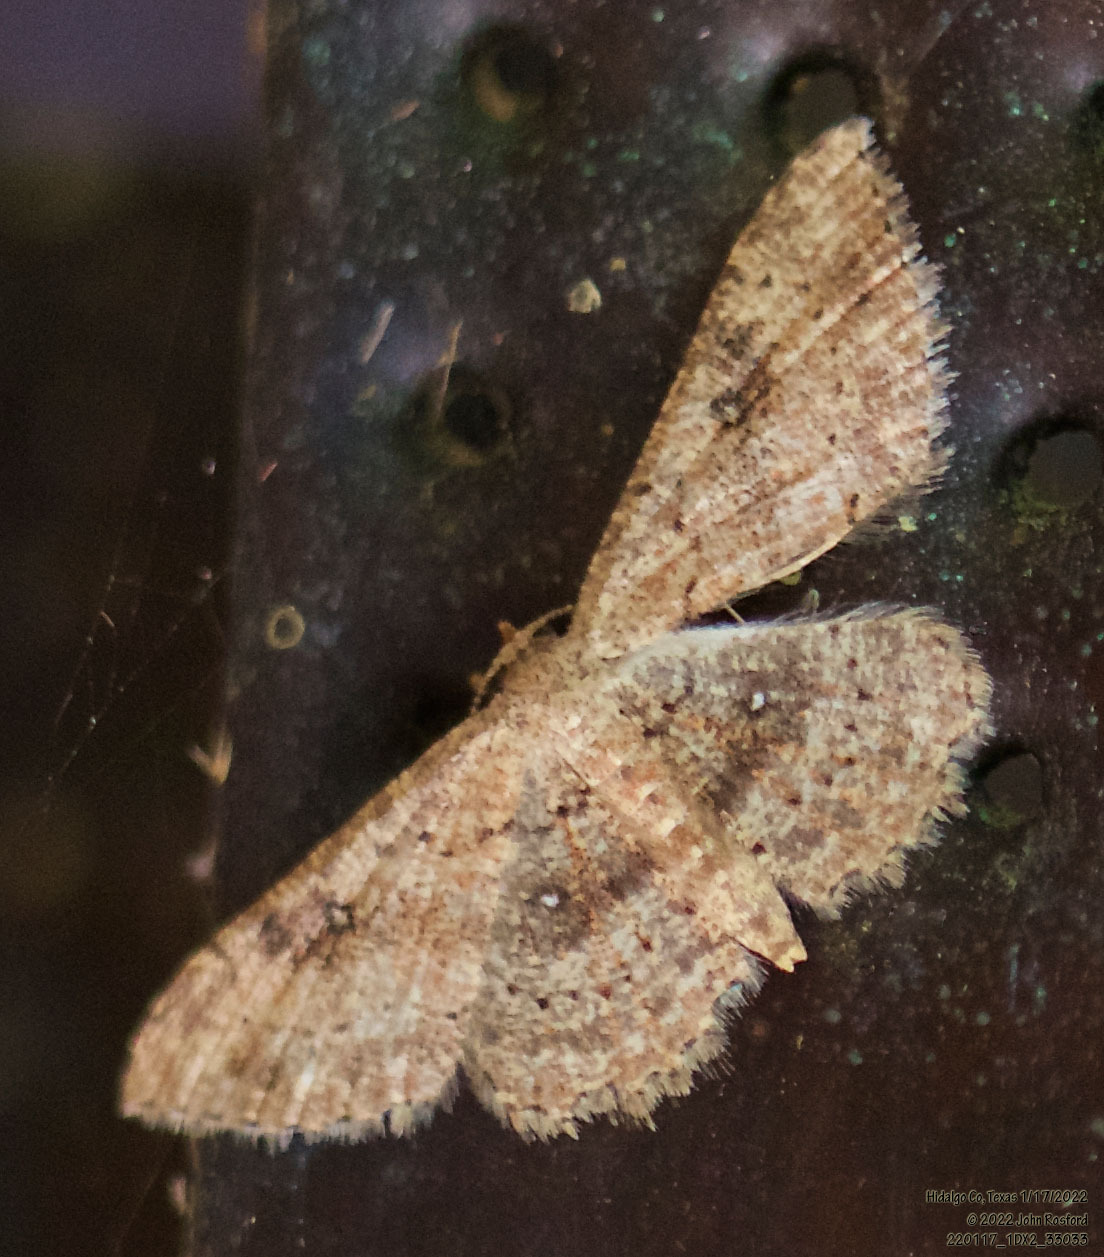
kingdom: Animalia
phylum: Arthropoda
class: Insecta
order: Lepidoptera
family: Geometridae
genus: Cyclophora
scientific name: Cyclophora nanaria
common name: Cankerworm
